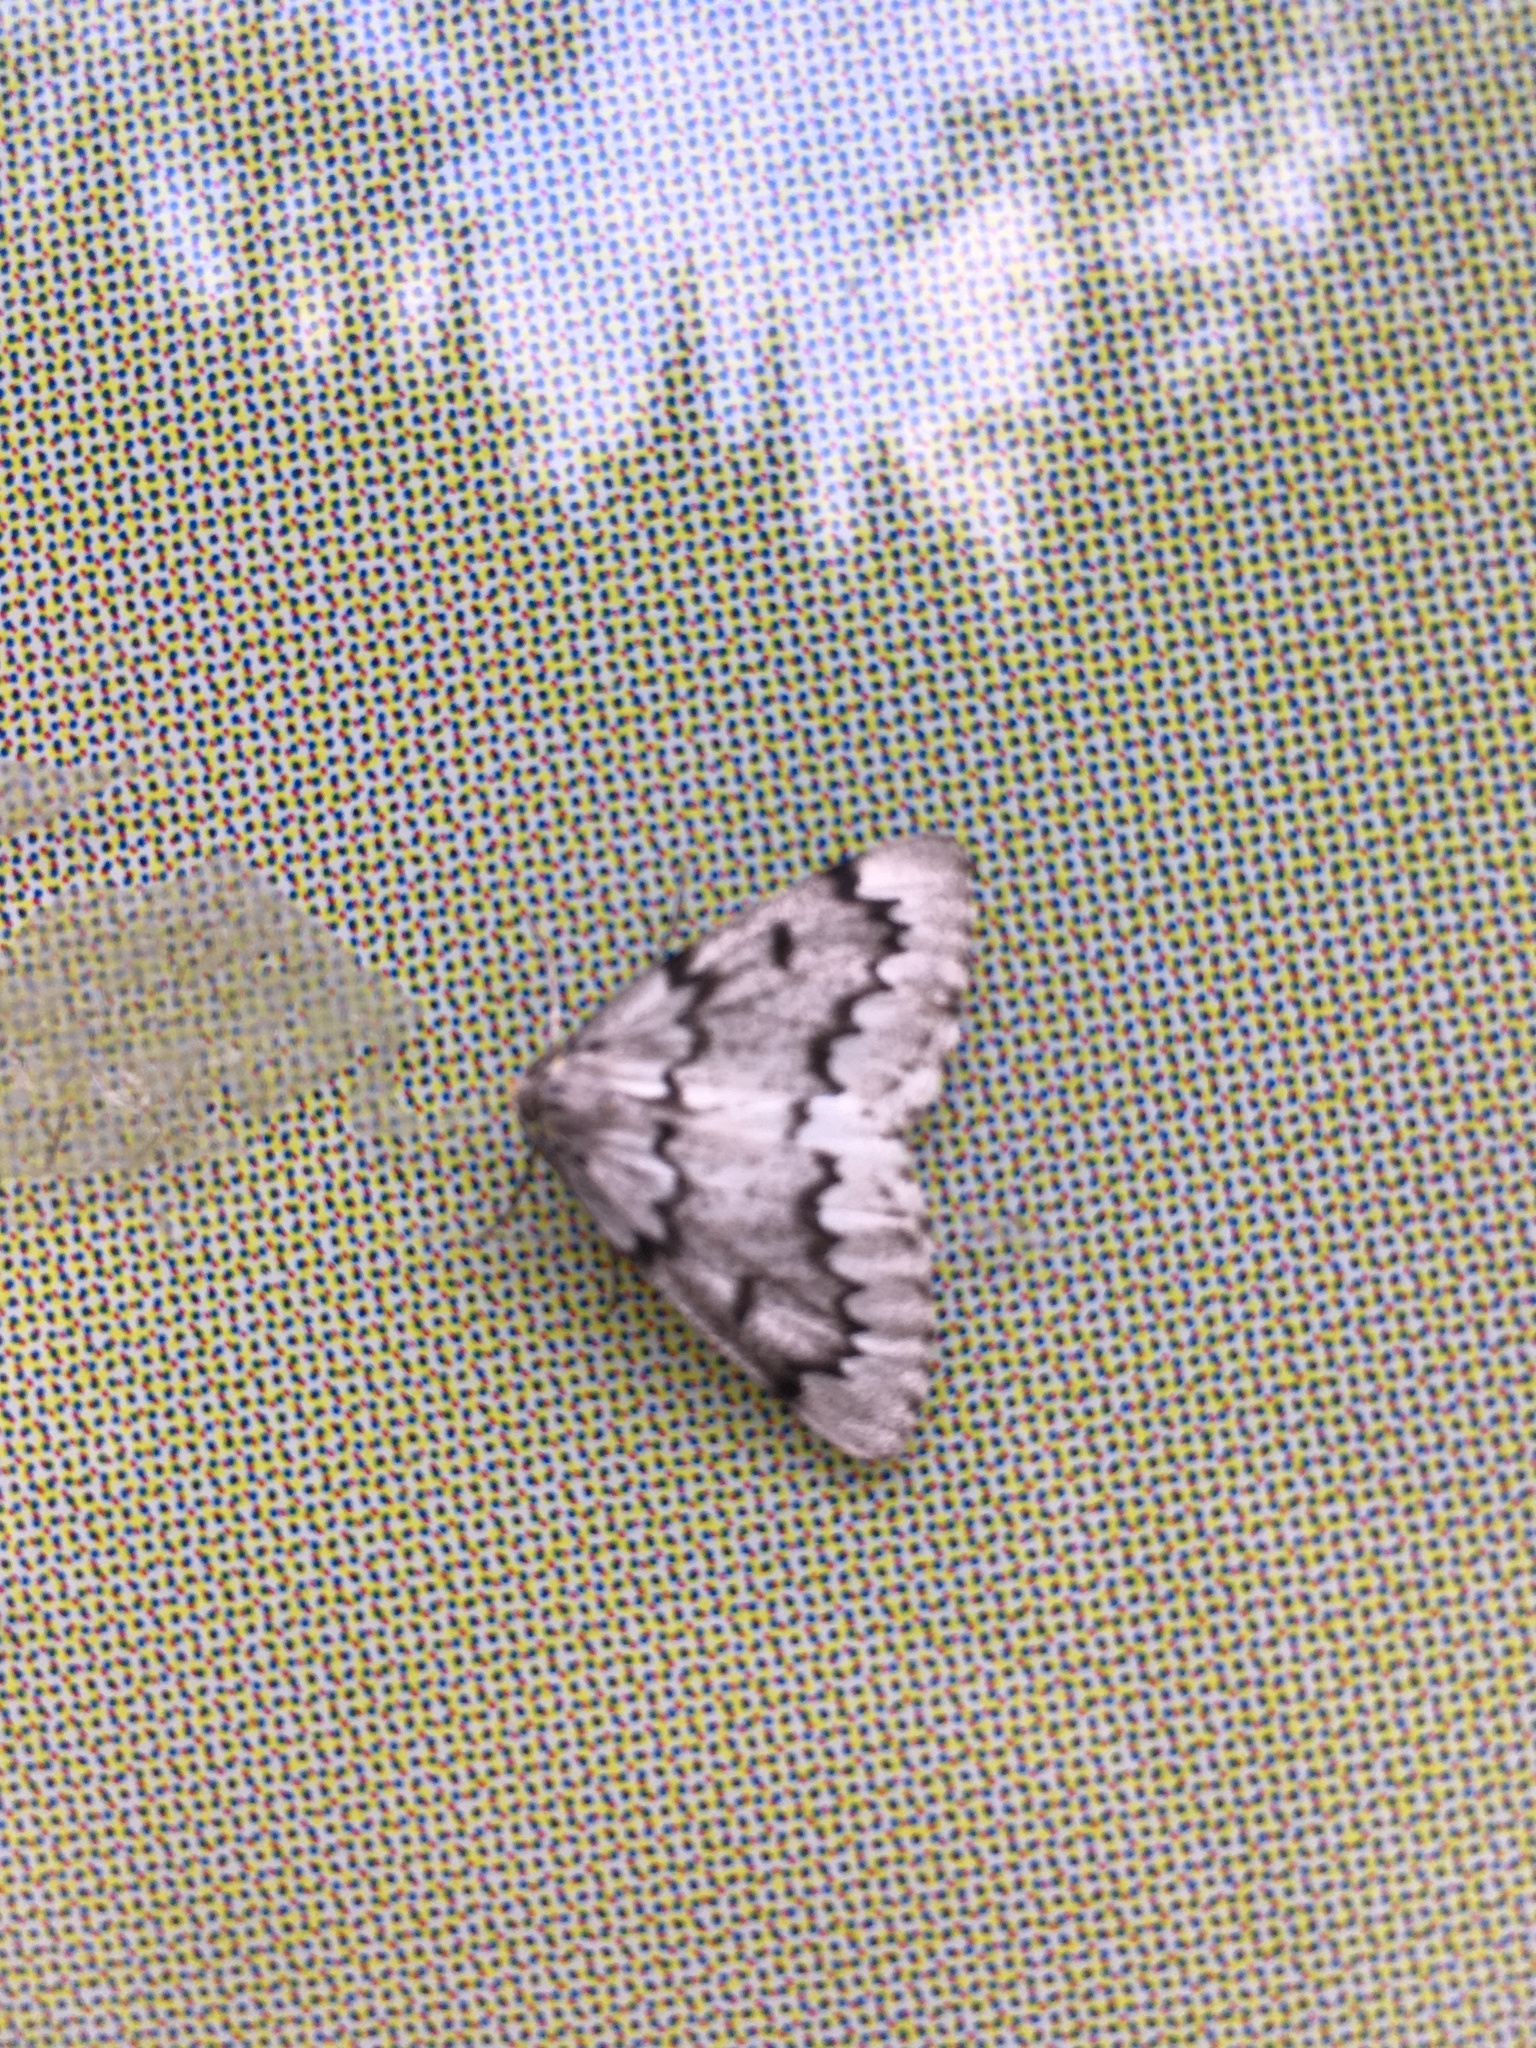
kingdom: Animalia
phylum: Arthropoda
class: Insecta
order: Lepidoptera
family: Geometridae
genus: Nepytia
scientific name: Nepytia canosaria
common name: False hemlock looper
